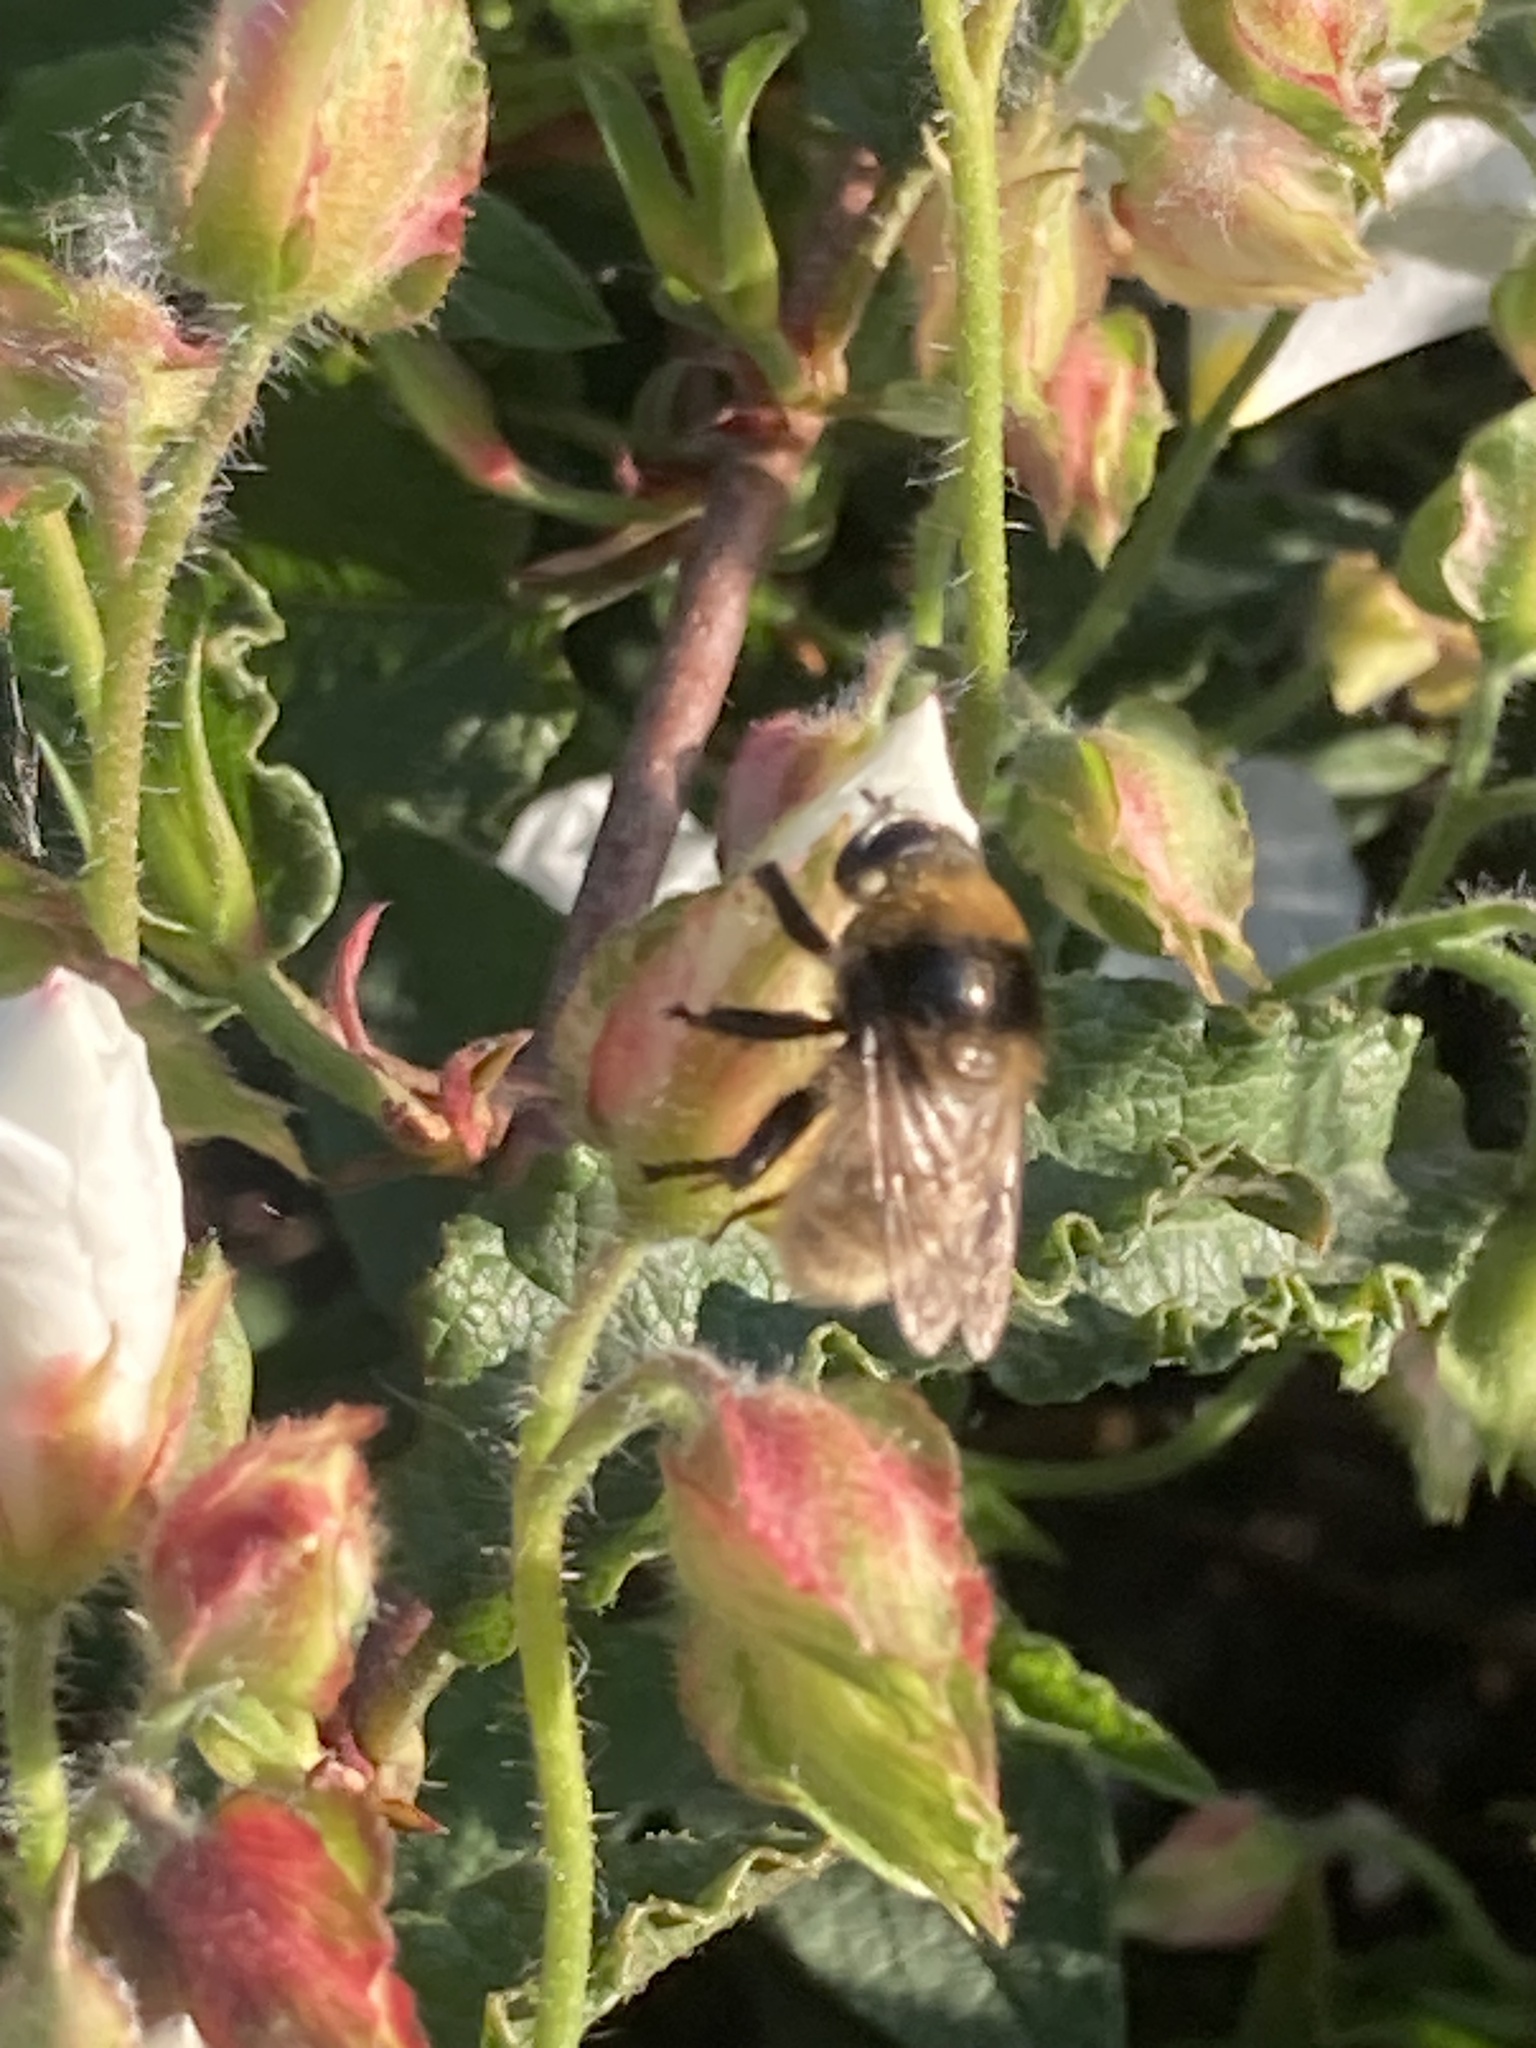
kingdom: Animalia
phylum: Arthropoda
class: Insecta
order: Diptera
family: Syrphidae
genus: Merodon
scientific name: Merodon equestris
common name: Greater bulb-fly
